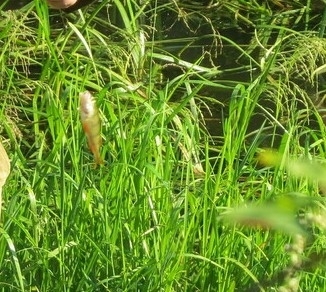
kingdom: Animalia
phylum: Chordata
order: Perciformes
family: Percidae
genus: Perca
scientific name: Perca fluviatilis
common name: Perch
